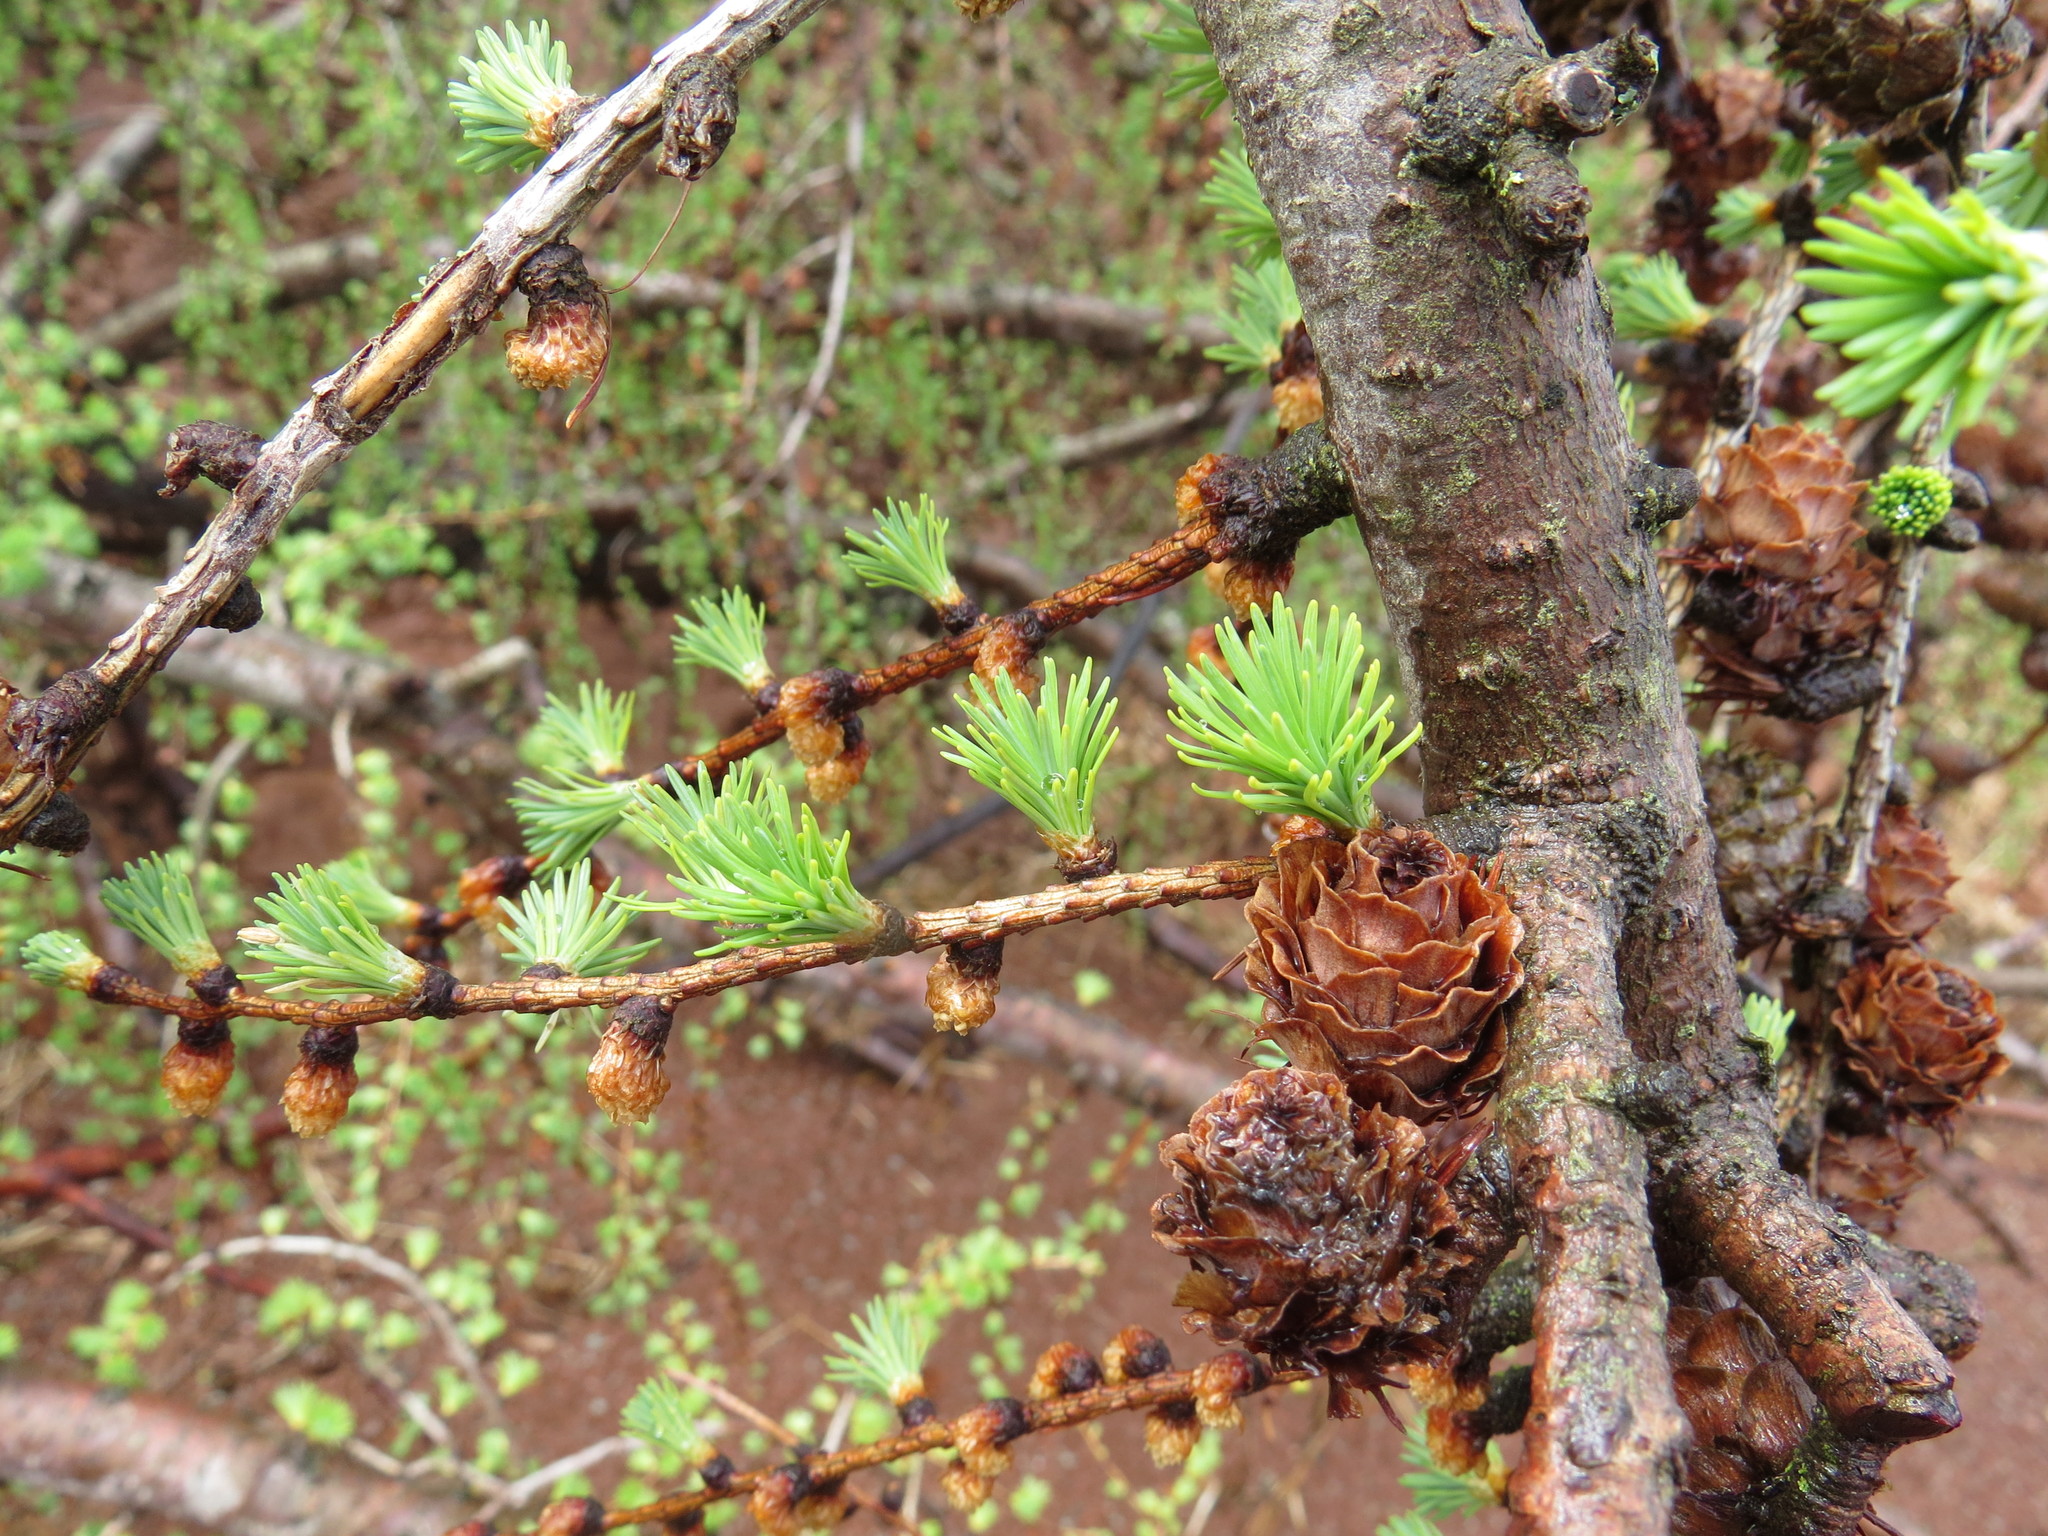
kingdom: Plantae
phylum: Tracheophyta
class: Pinopsida
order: Pinales
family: Pinaceae
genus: Larix
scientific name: Larix laricina
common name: American larch
